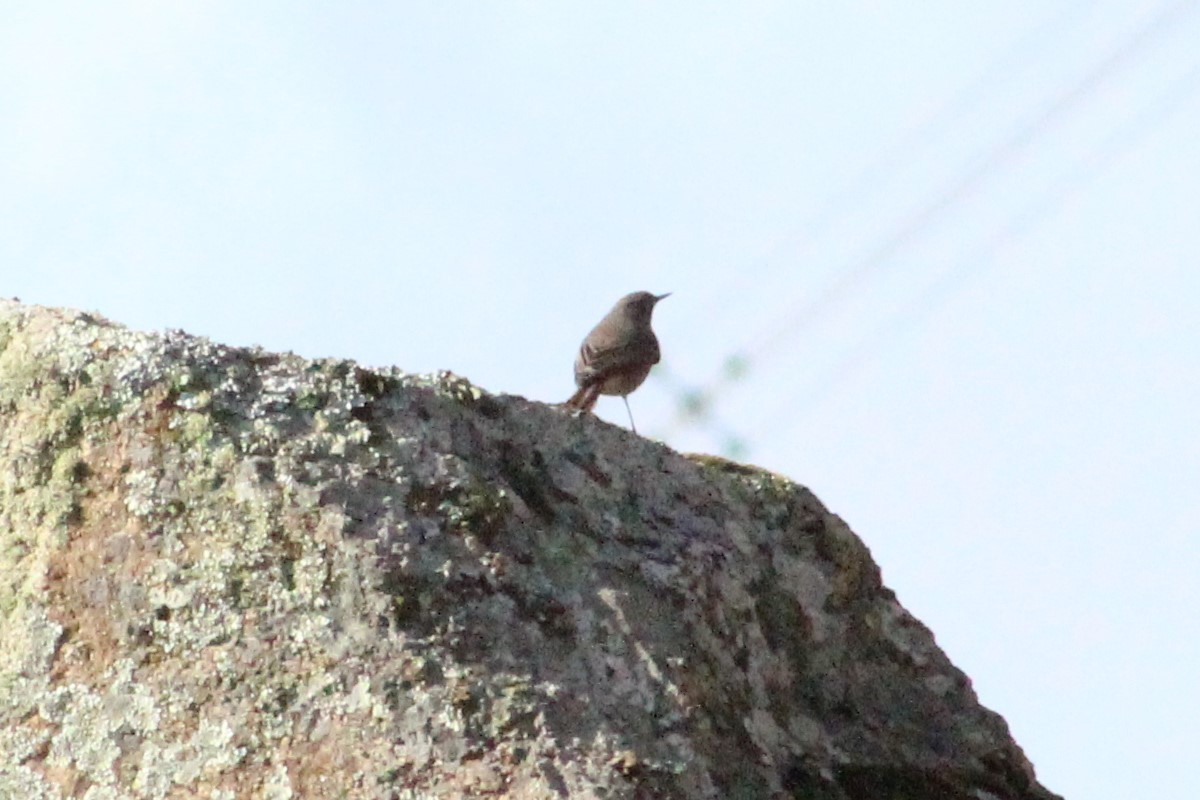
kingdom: Animalia
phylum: Chordata
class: Aves
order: Passeriformes
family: Muscicapidae
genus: Phoenicurus
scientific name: Phoenicurus ochruros
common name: Black redstart
